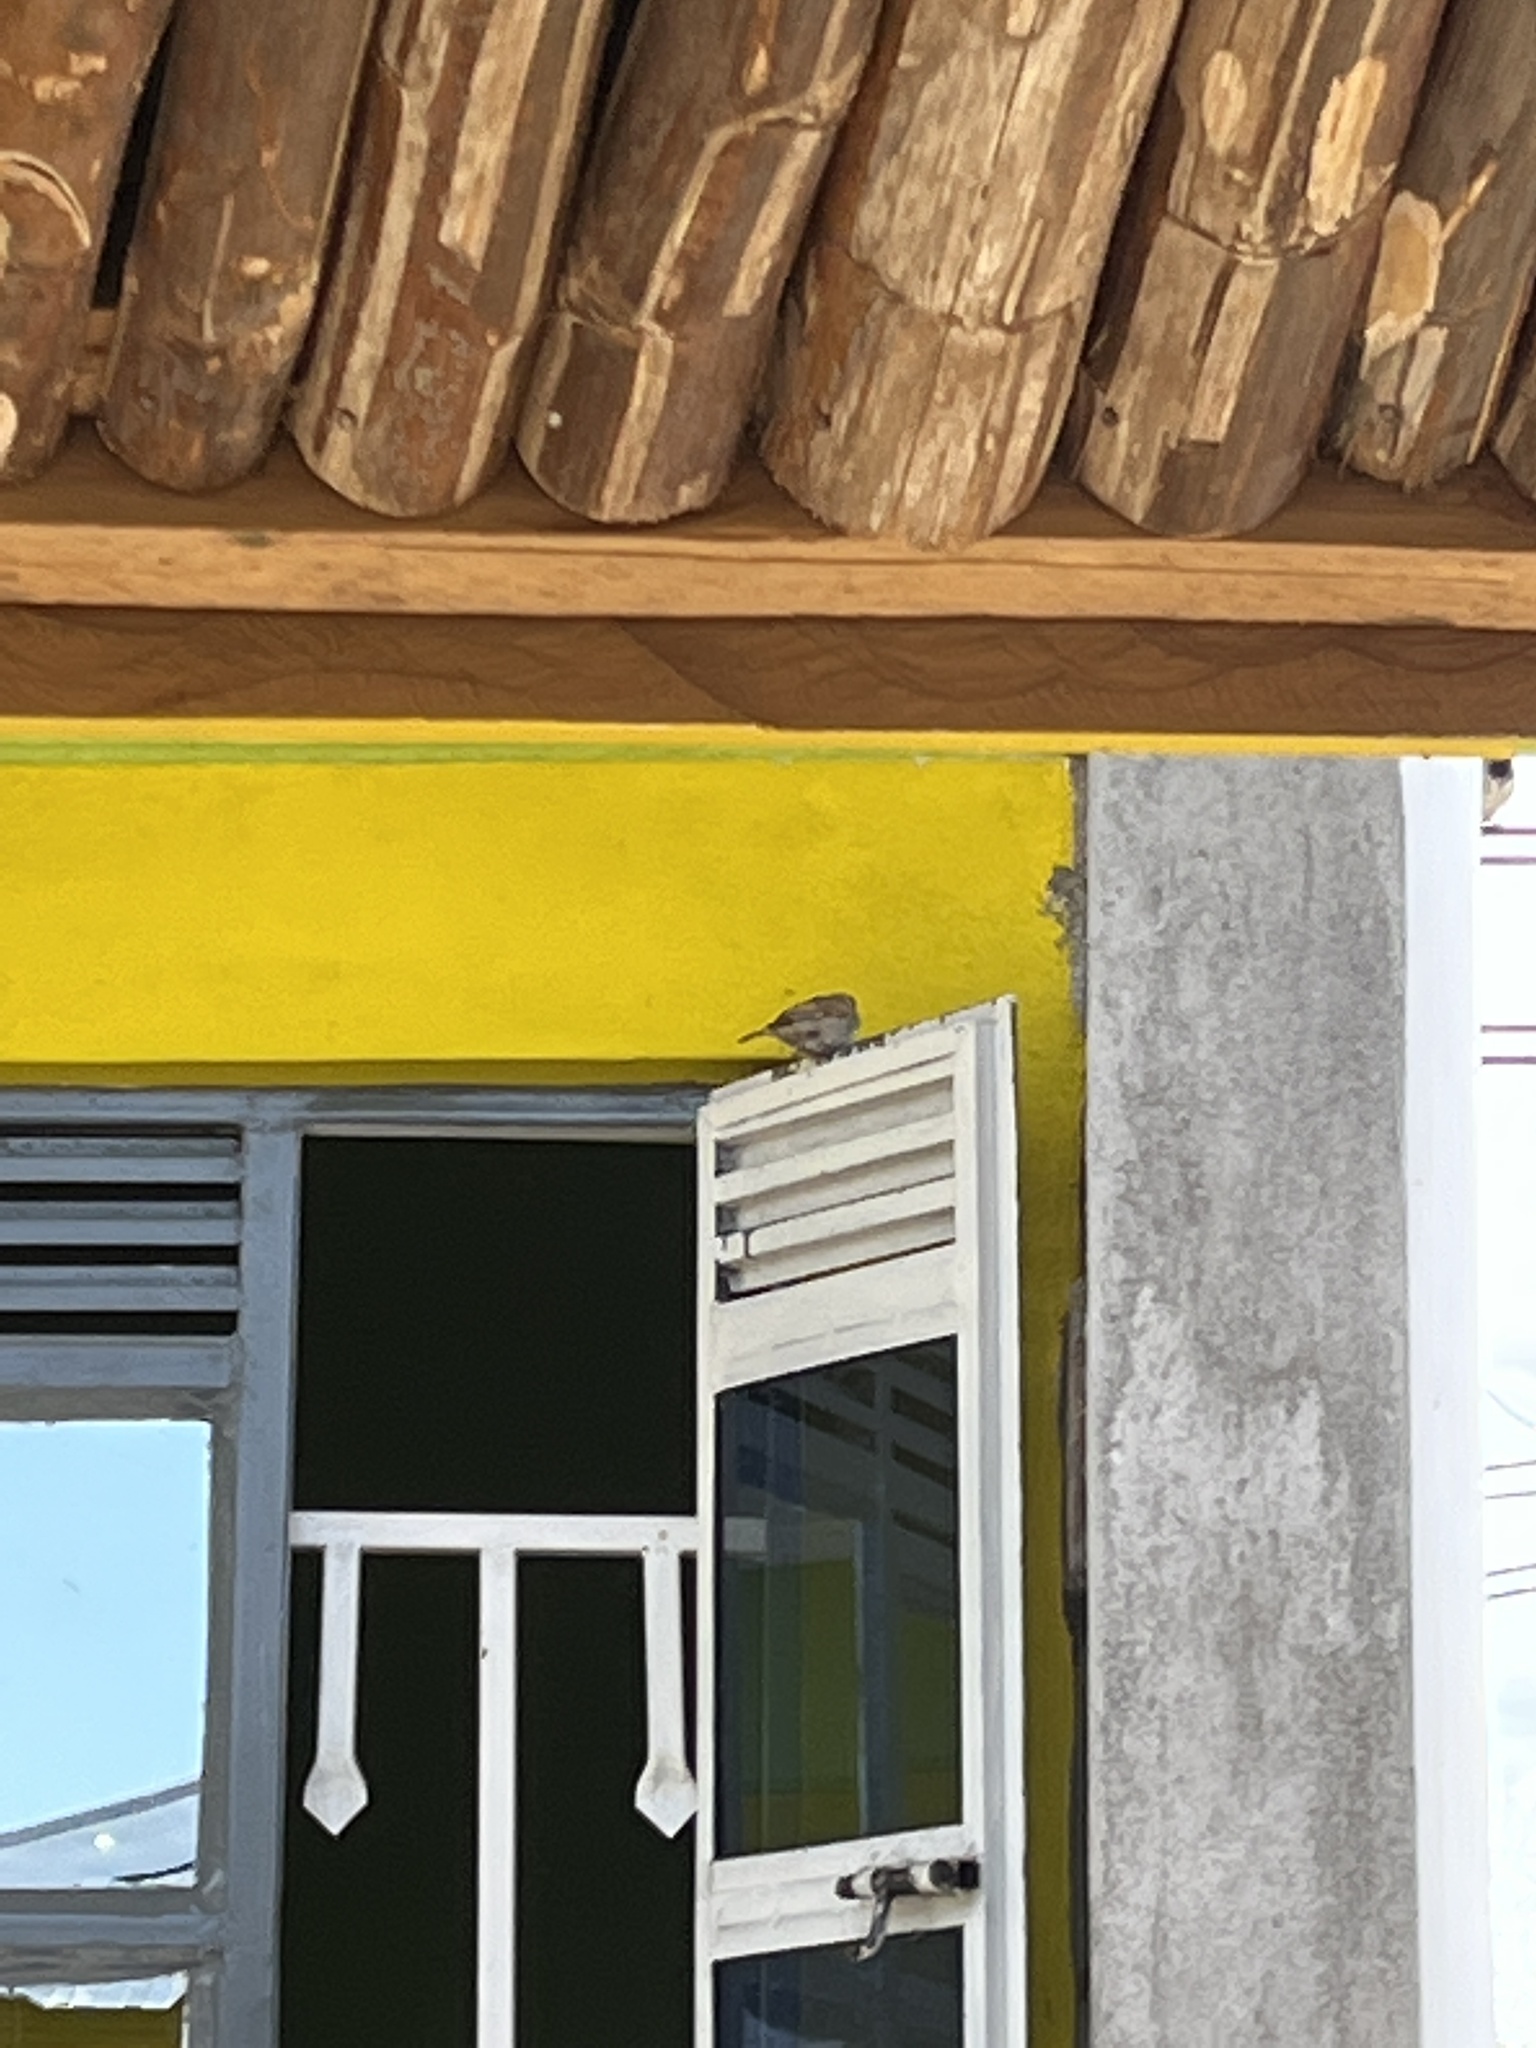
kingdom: Animalia
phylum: Chordata
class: Aves
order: Passeriformes
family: Passeridae
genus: Passer
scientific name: Passer domesticus
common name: House sparrow
